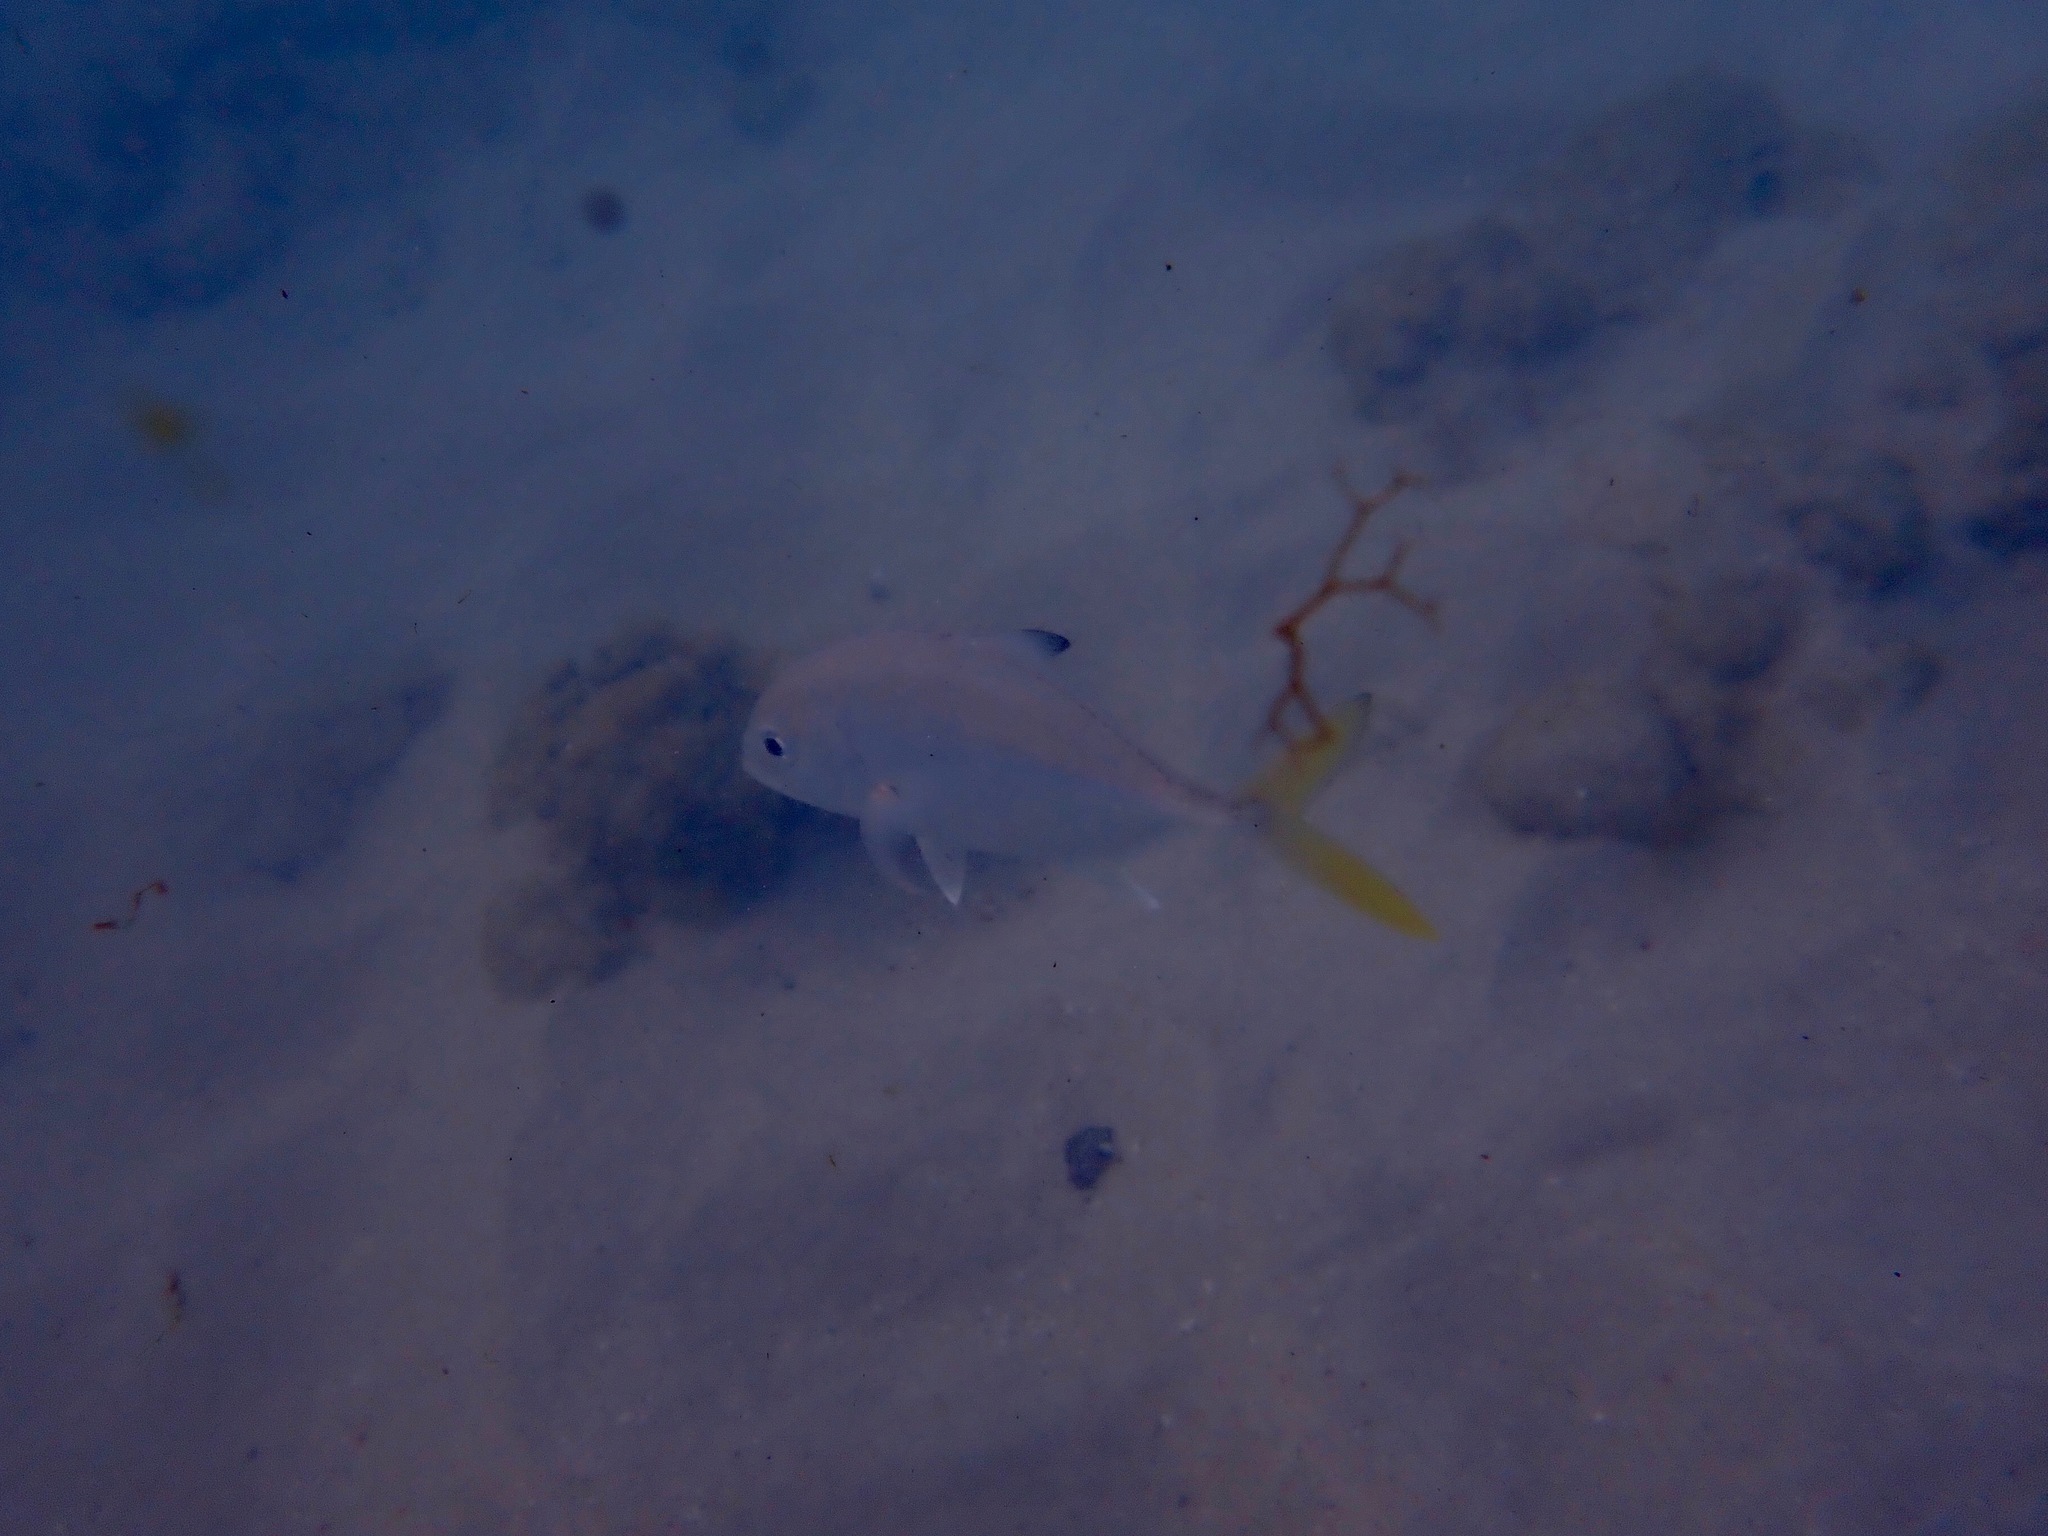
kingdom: Animalia
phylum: Chordata
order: Perciformes
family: Carangidae
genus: Caranx
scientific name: Caranx latus
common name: Horse eye jack
